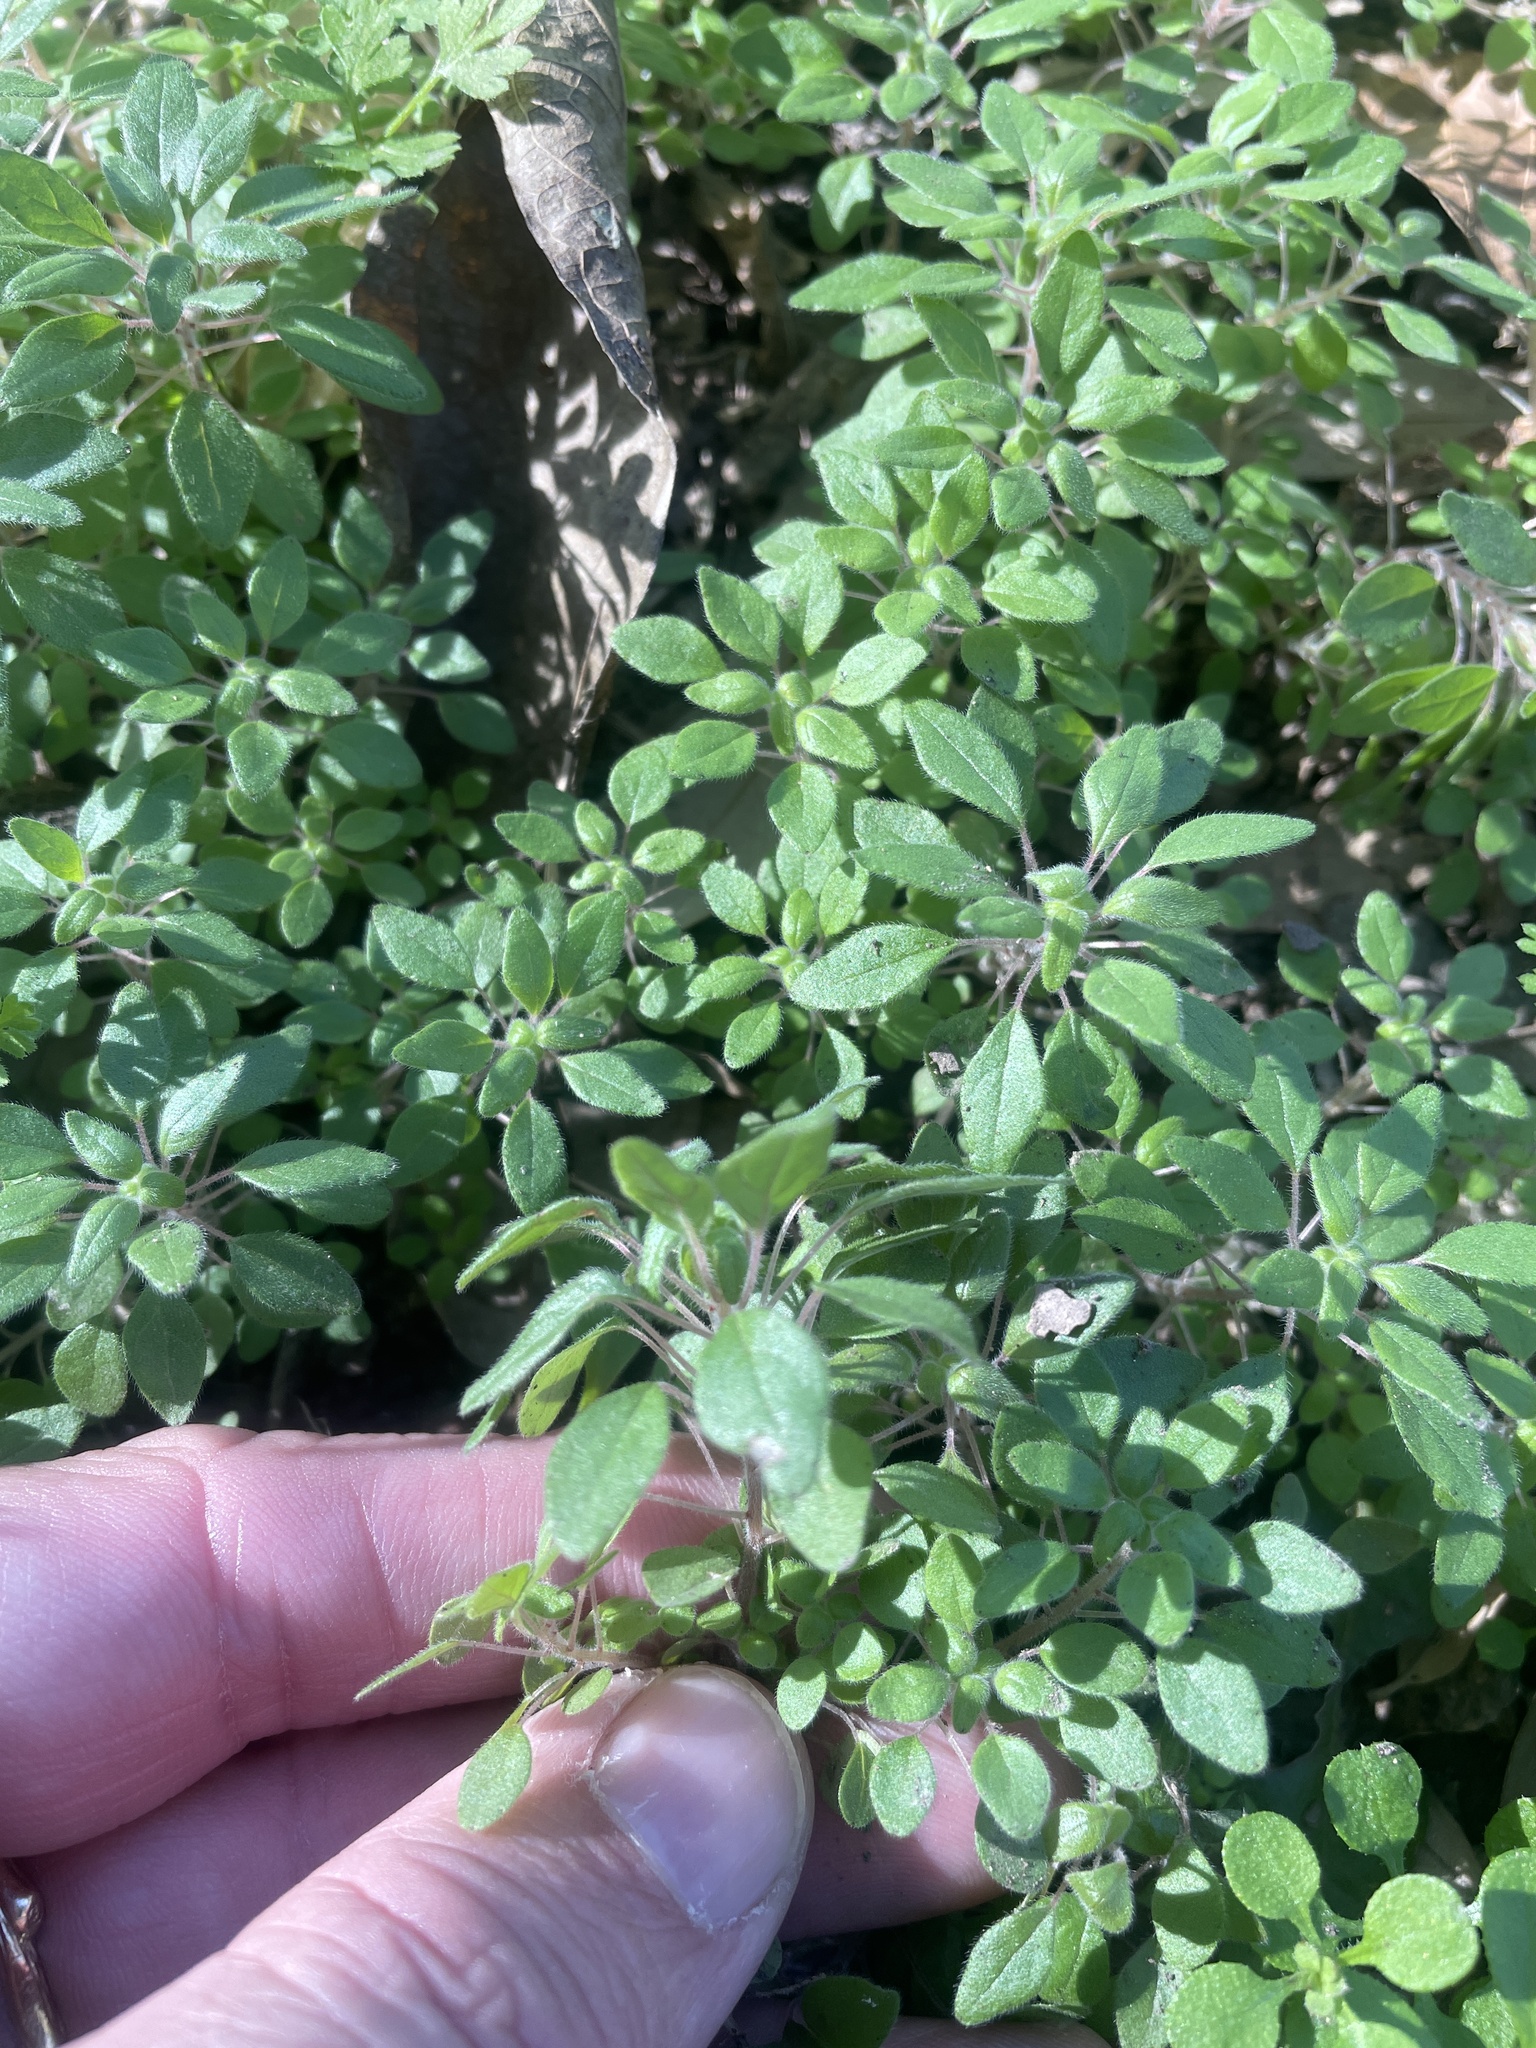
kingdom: Plantae
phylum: Tracheophyta
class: Magnoliopsida
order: Rosales
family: Urticaceae
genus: Parietaria
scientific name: Parietaria pensylvanica
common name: Pennsylvania pellitory
